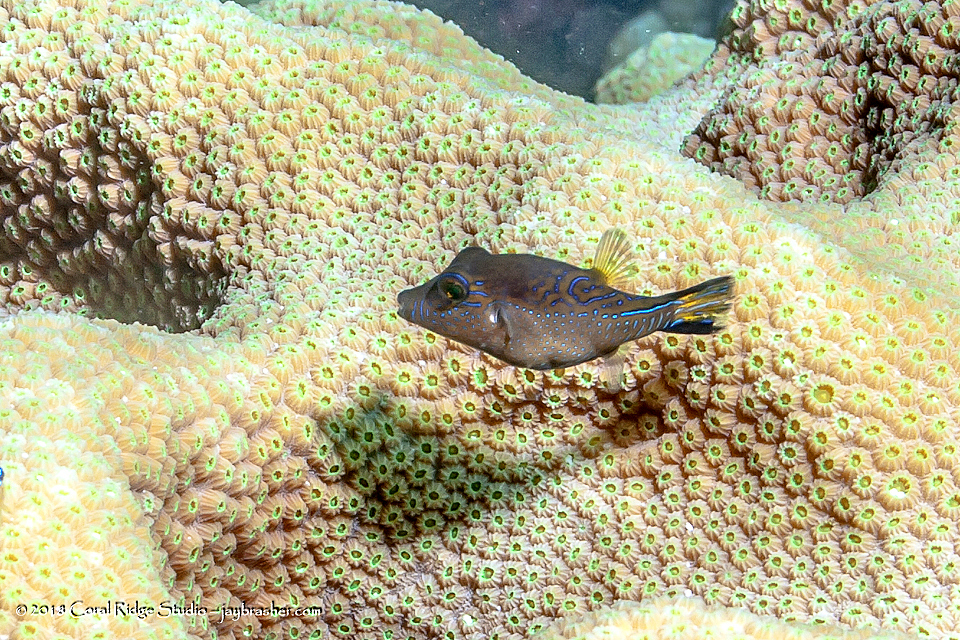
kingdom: Animalia
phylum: Chordata
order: Tetraodontiformes
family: Tetraodontidae
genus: Canthigaster
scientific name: Canthigaster rostrata
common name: Caribbean sharpnose-puffer
